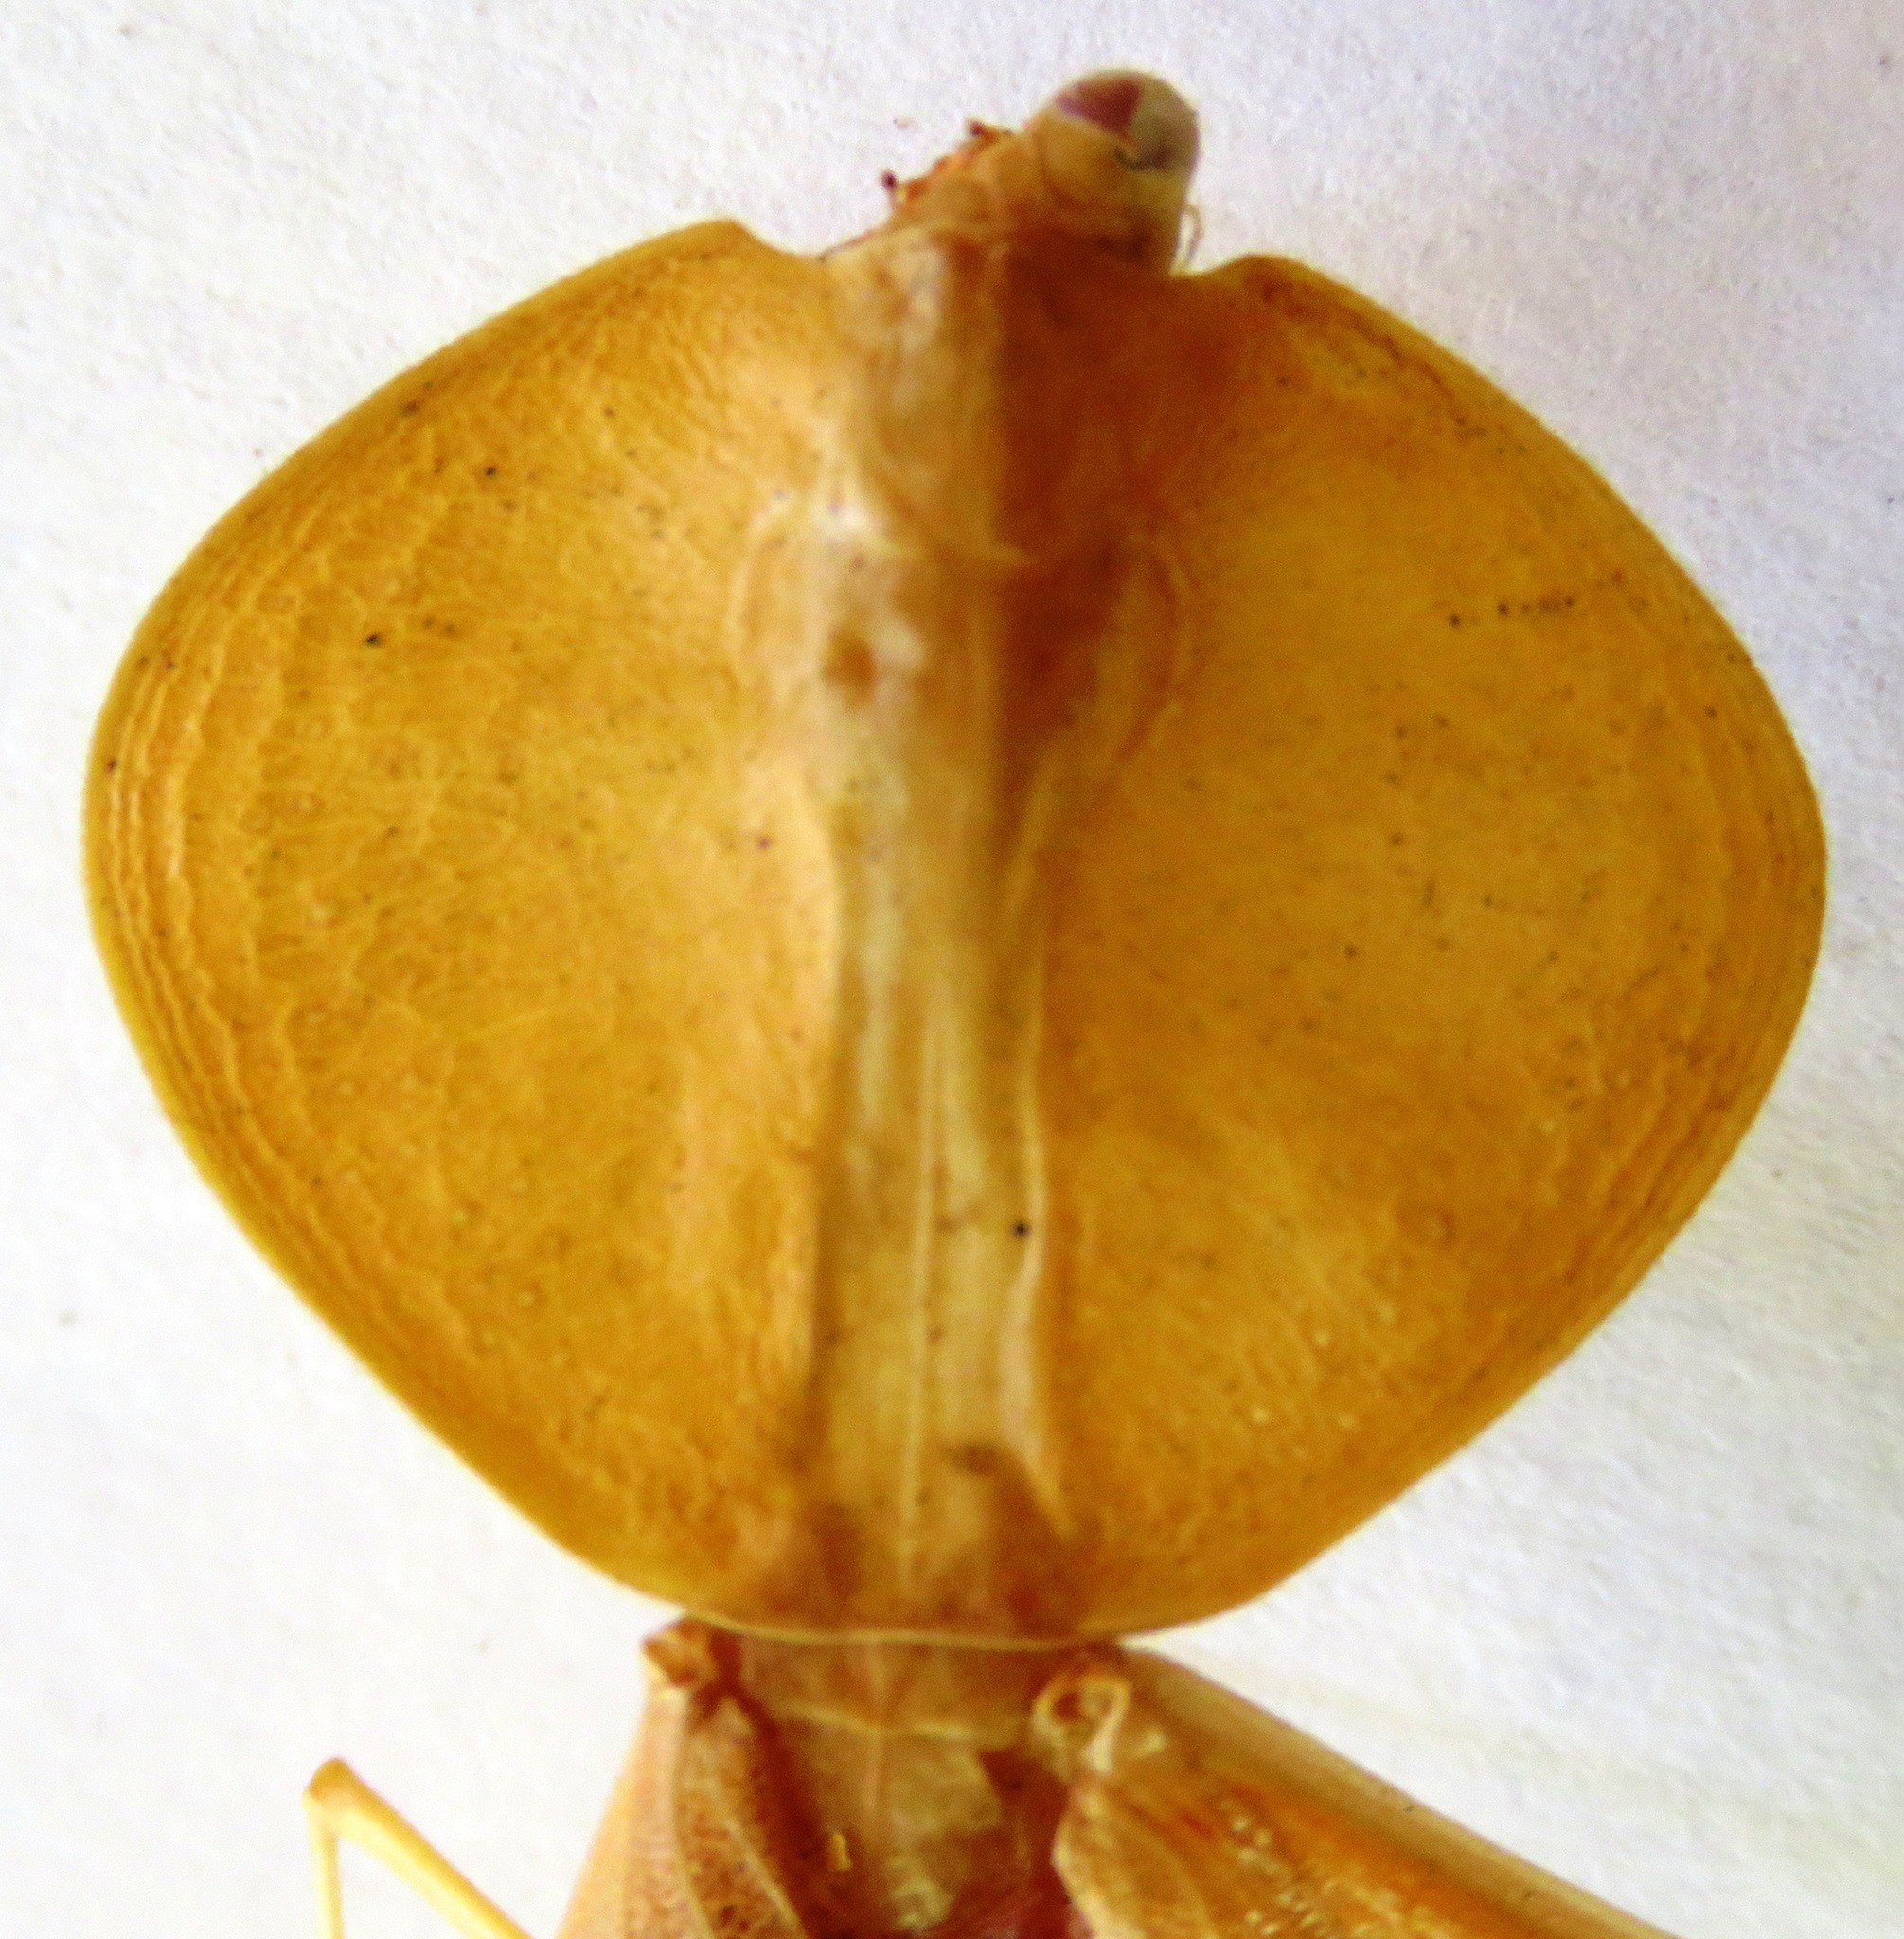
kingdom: Animalia
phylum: Arthropoda
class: Insecta
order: Mantodea
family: Mantidae
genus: Choeradodis
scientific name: Choeradodis rhombicollis
